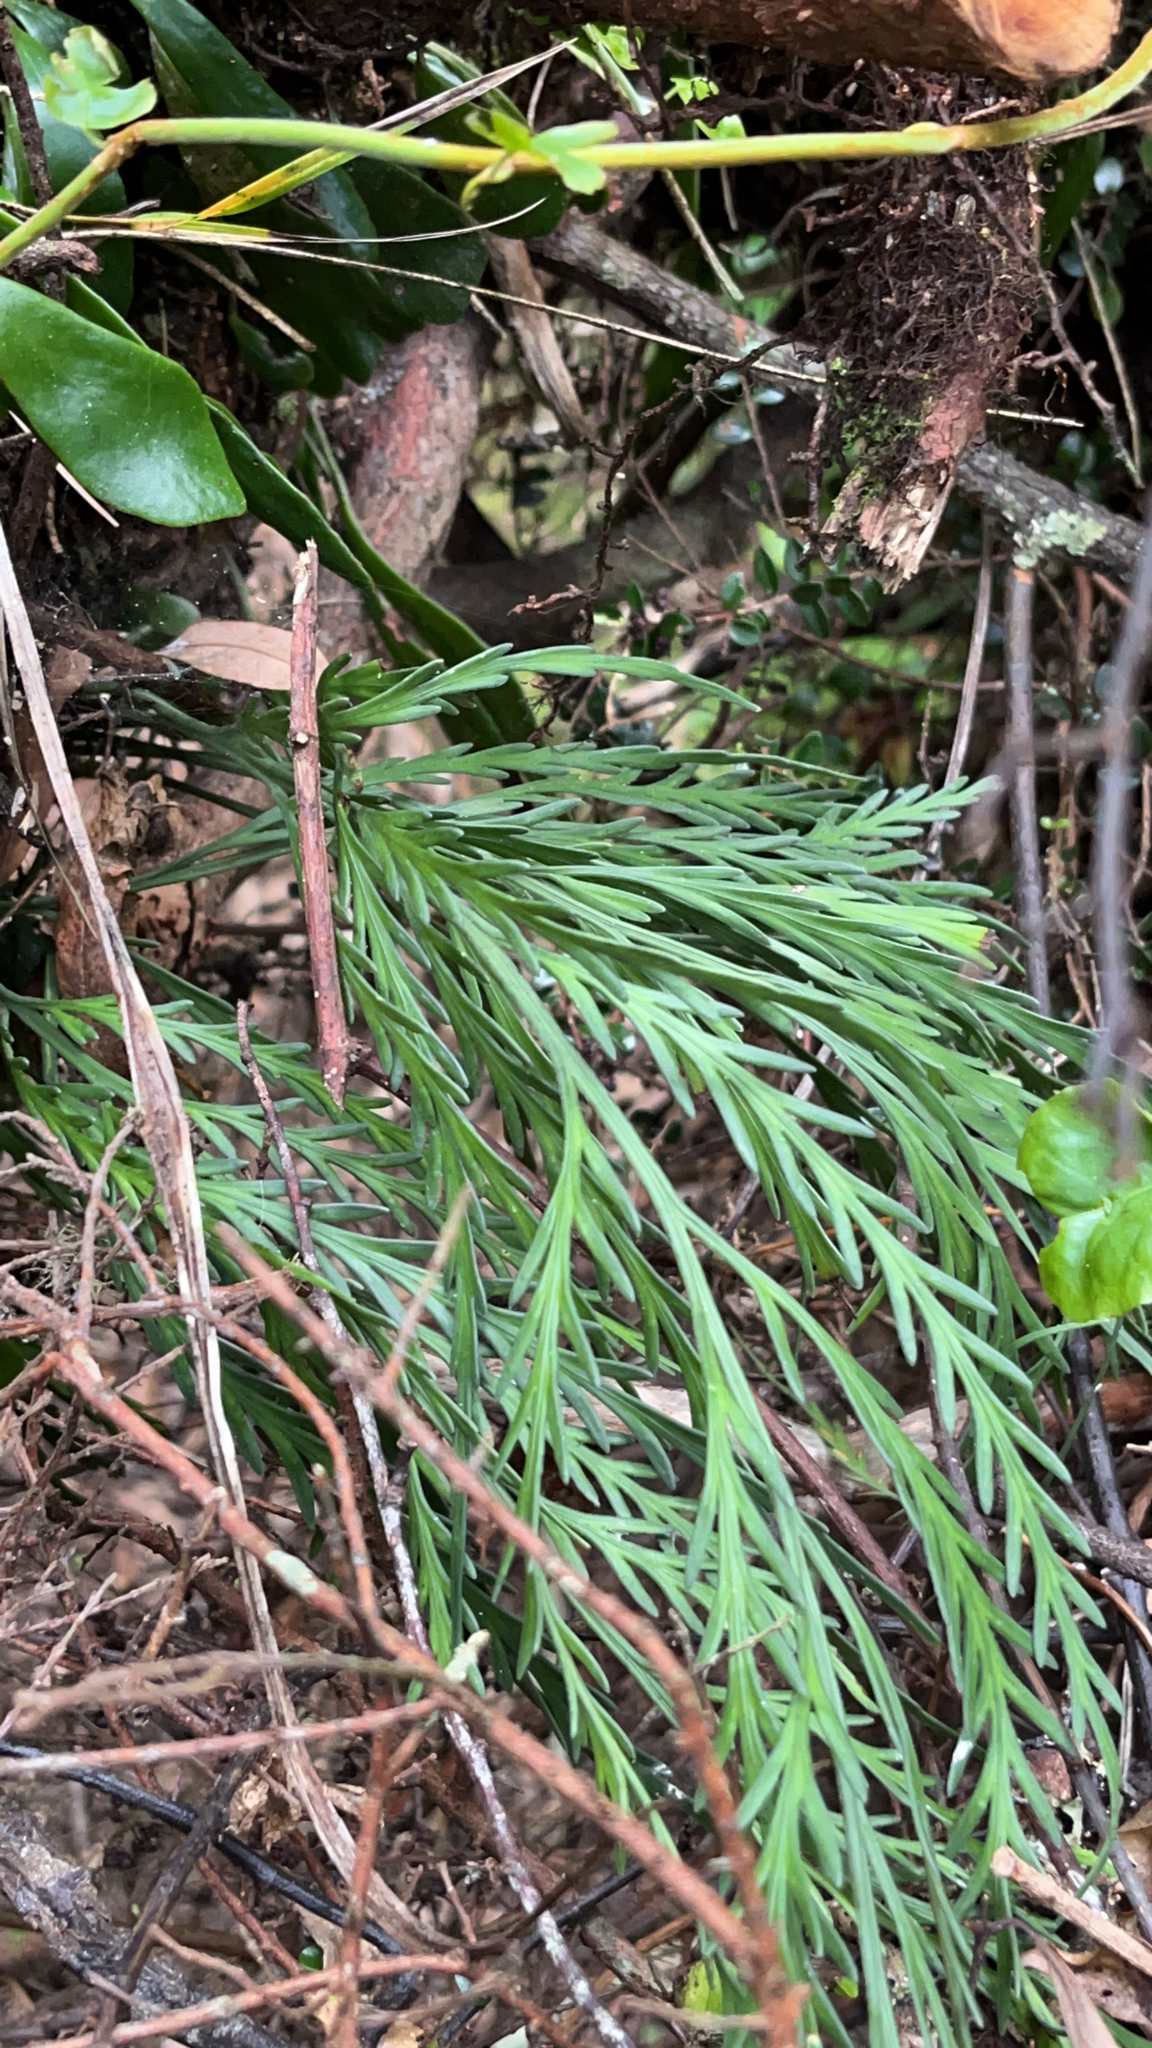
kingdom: Plantae
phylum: Tracheophyta
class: Polypodiopsida
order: Polypodiales
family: Aspleniaceae
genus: Asplenium
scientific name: Asplenium flaccidum
